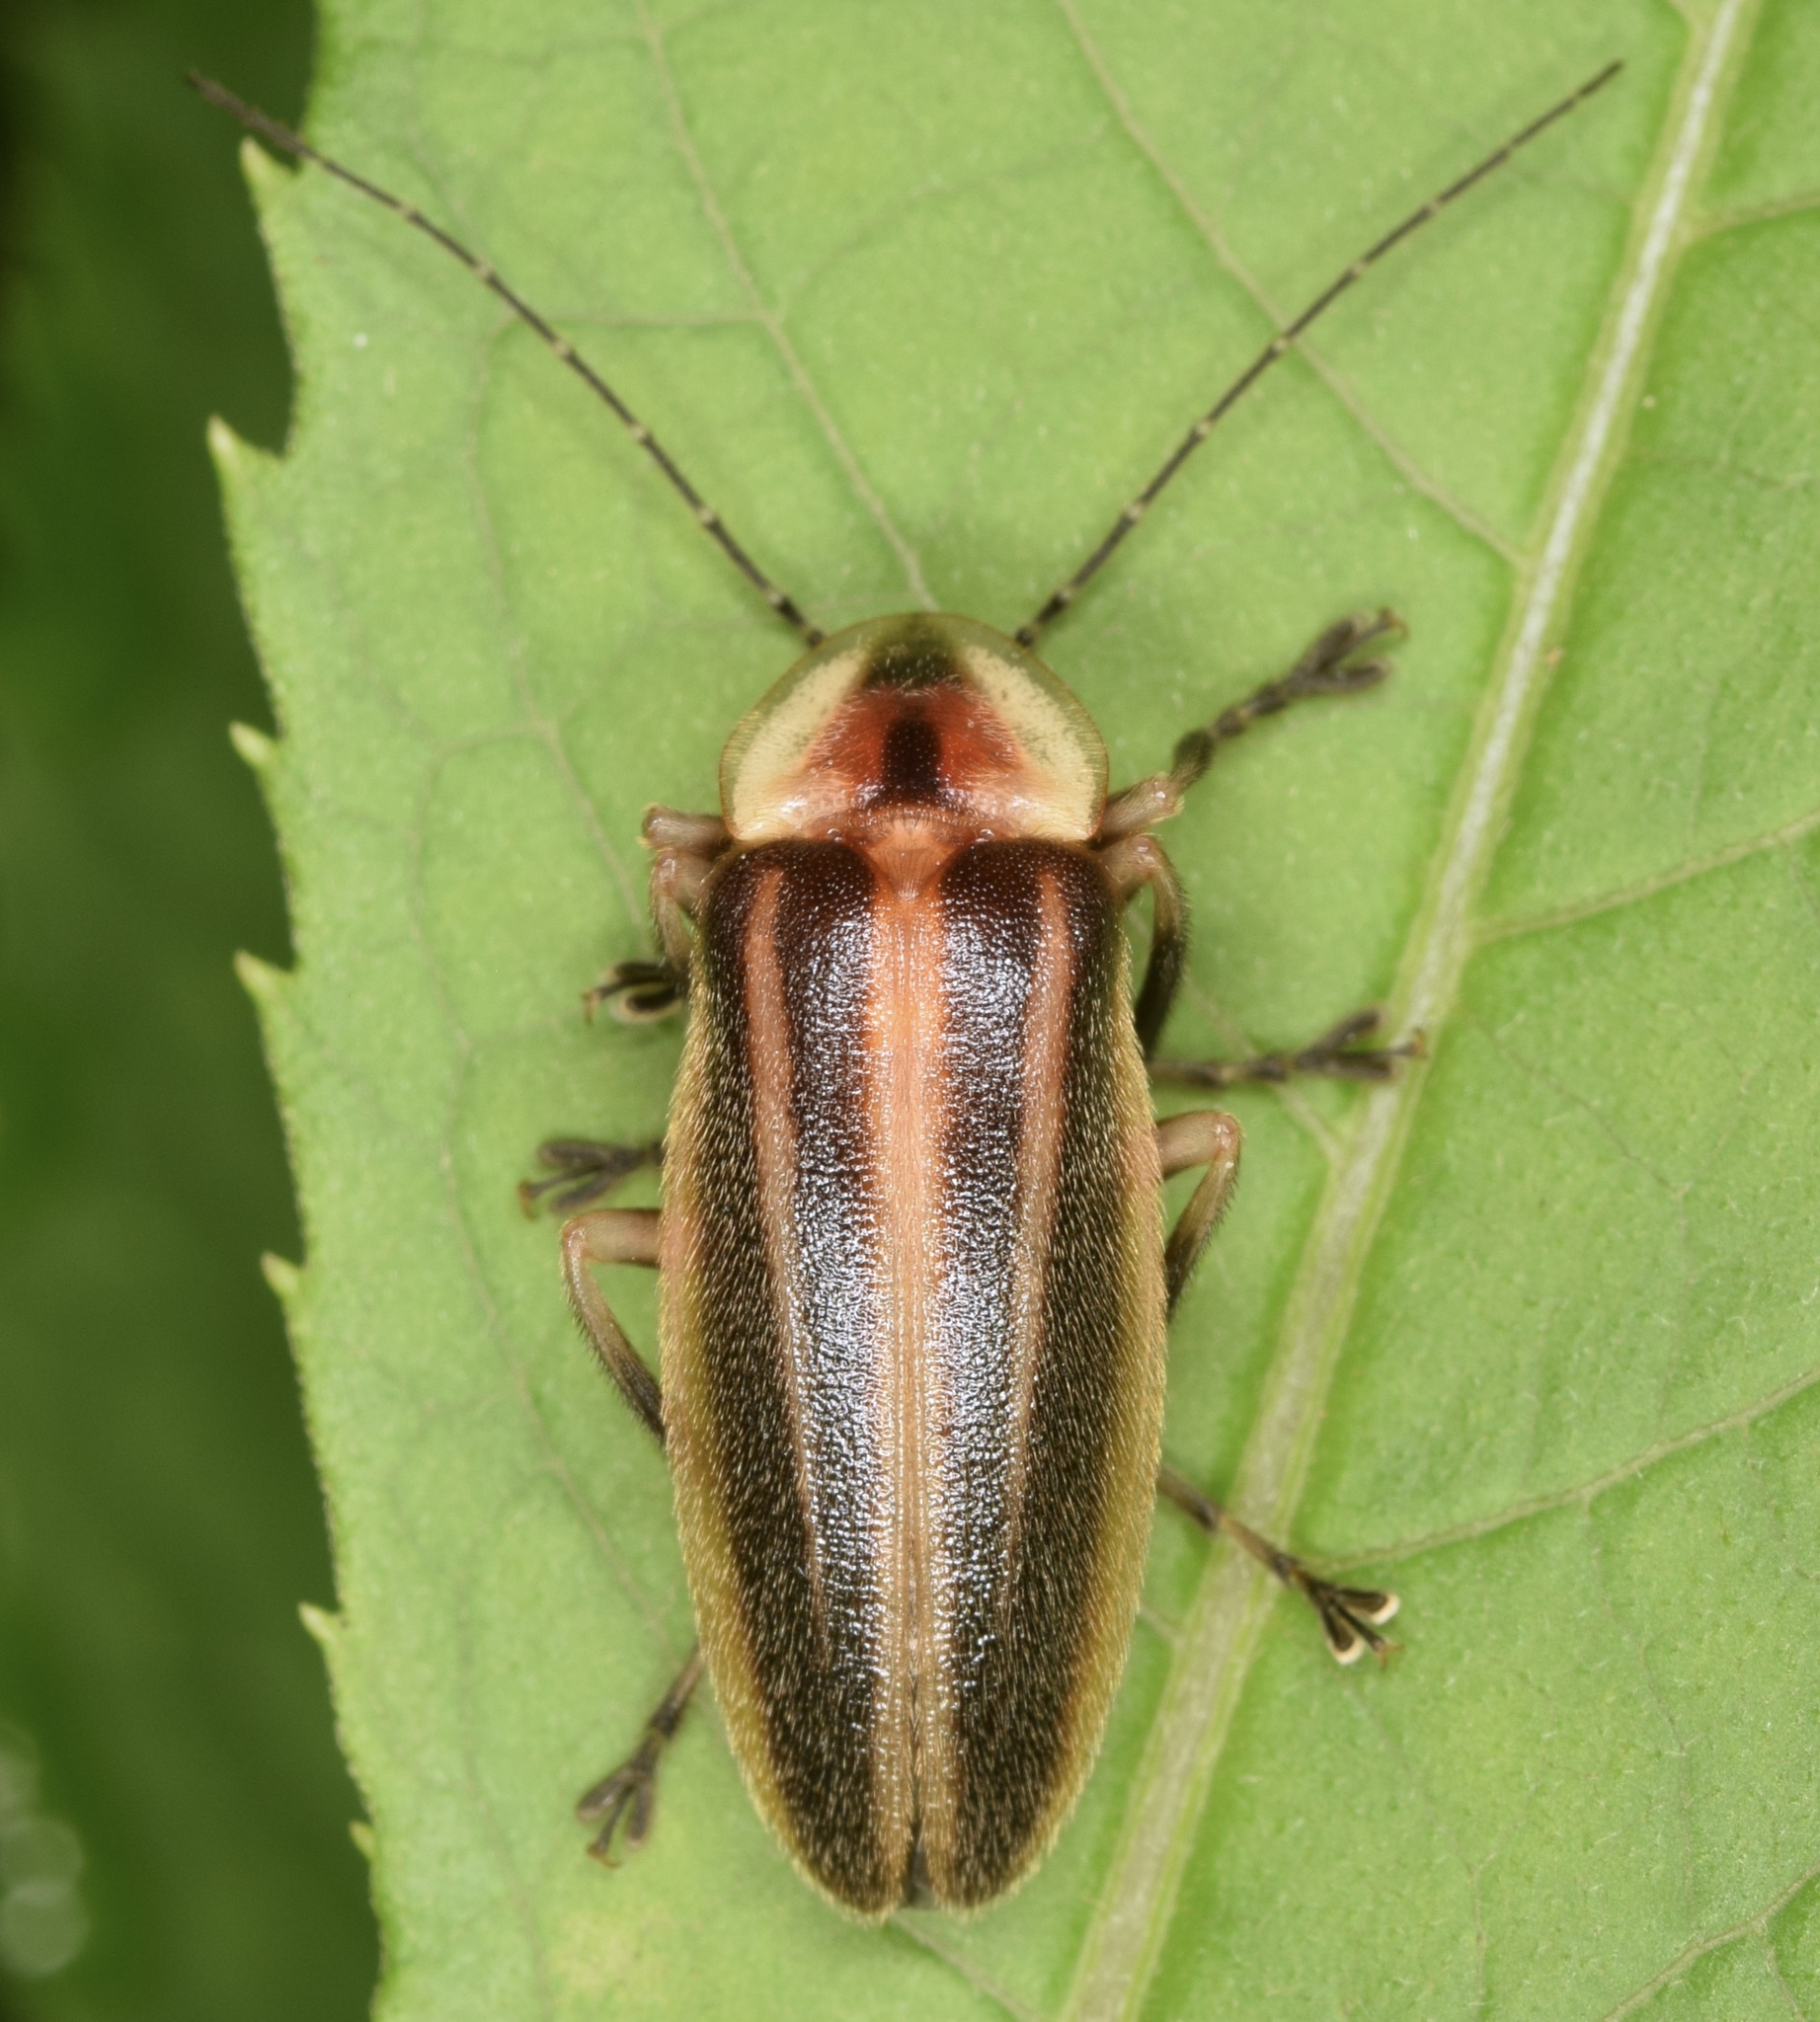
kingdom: Animalia
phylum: Arthropoda
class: Insecta
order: Coleoptera
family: Lampyridae
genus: Photuris
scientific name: Photuris
